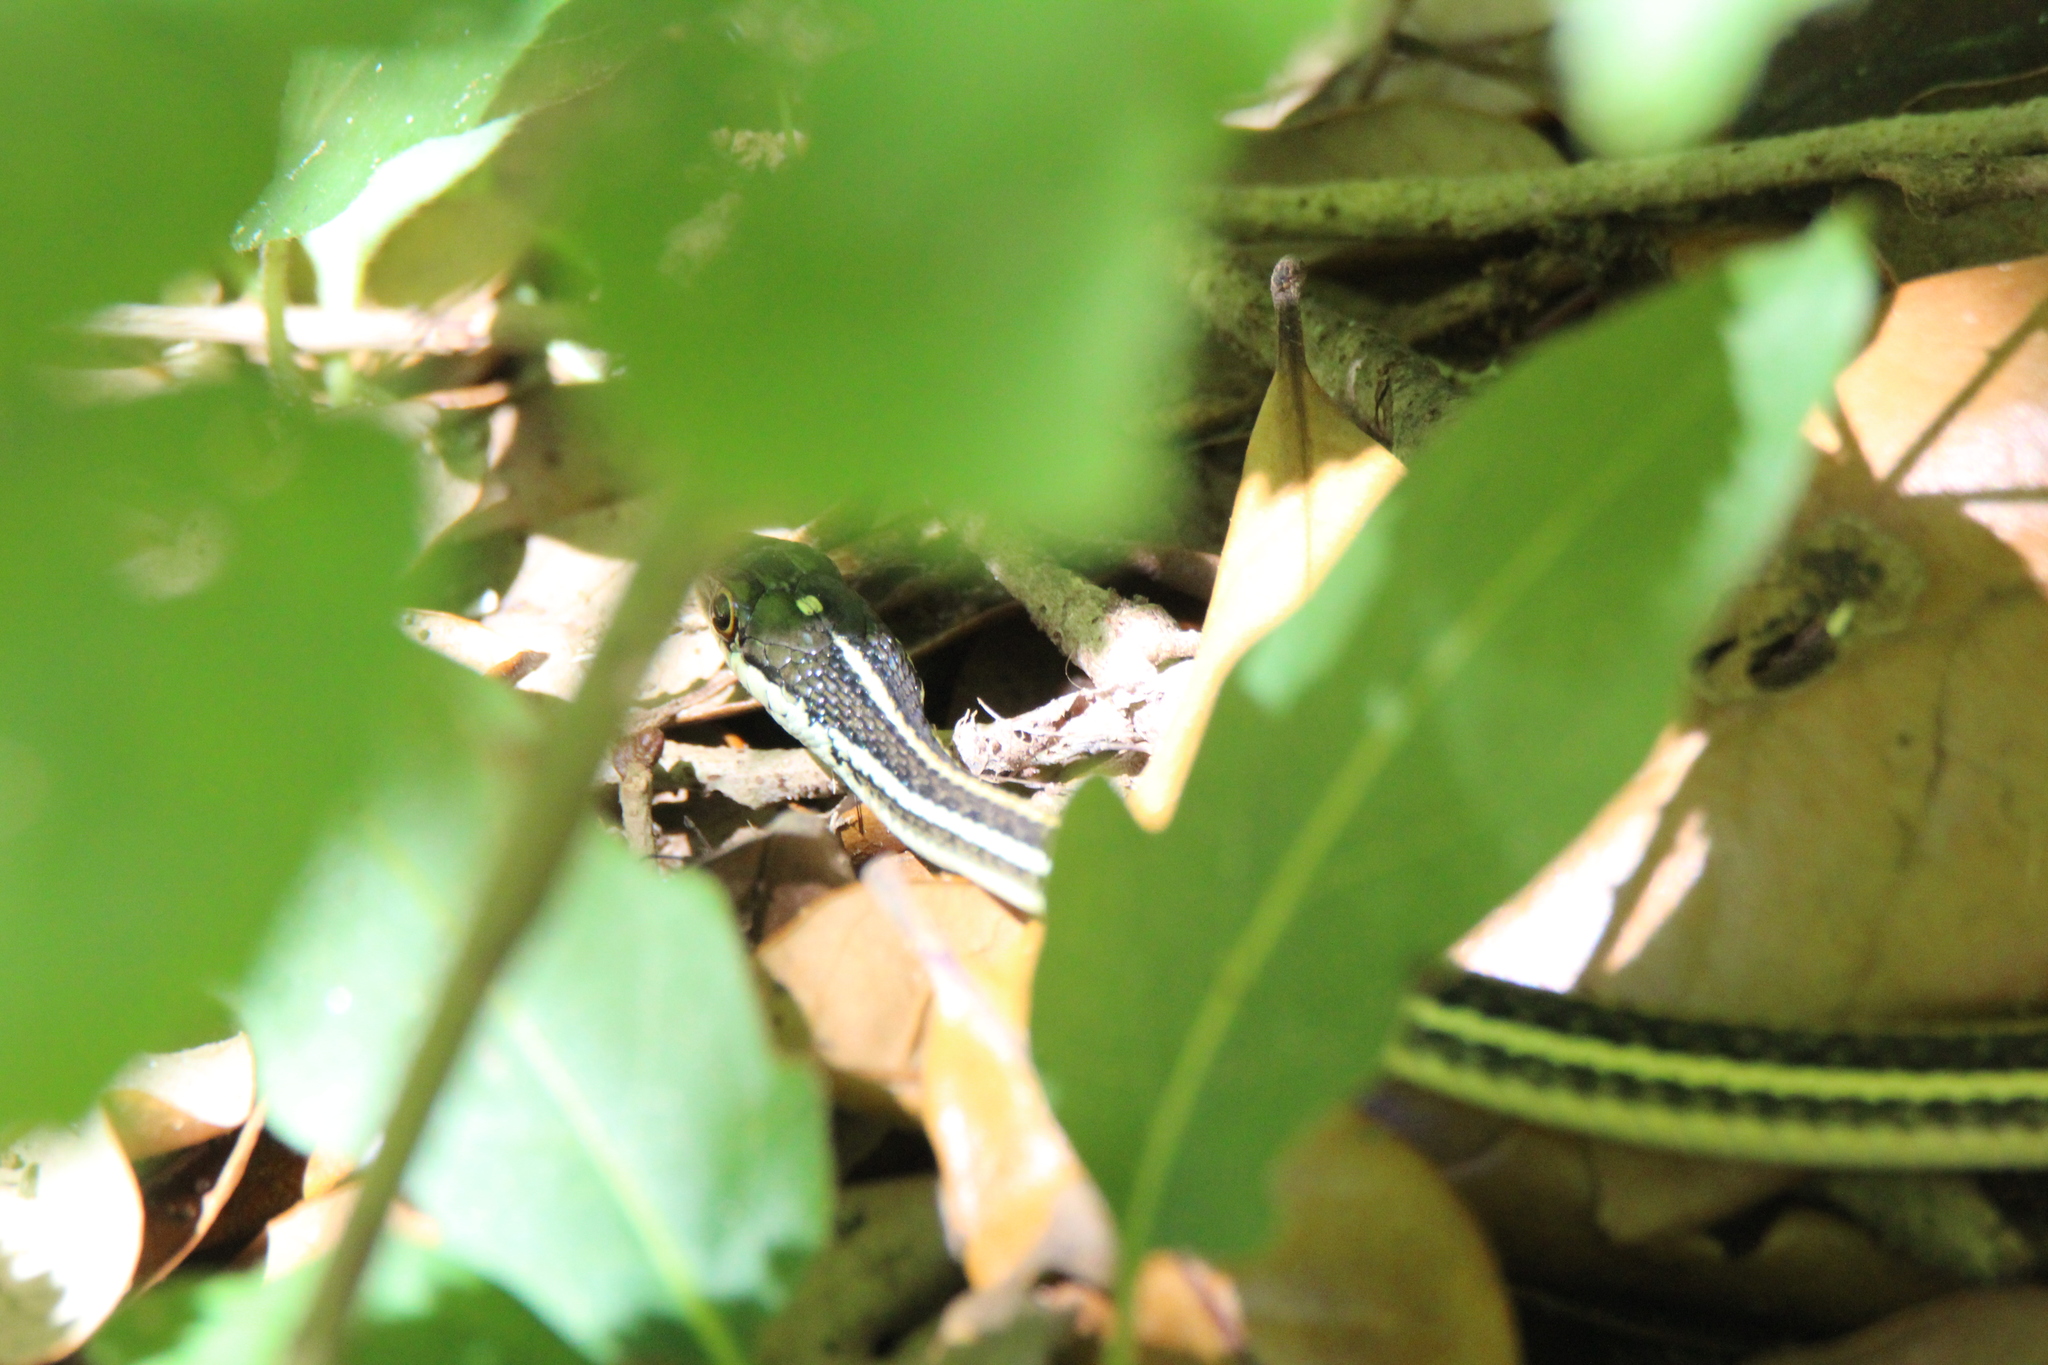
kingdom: Animalia
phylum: Chordata
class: Squamata
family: Colubridae
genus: Thamnophis
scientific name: Thamnophis proximus
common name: Western ribbon snake
